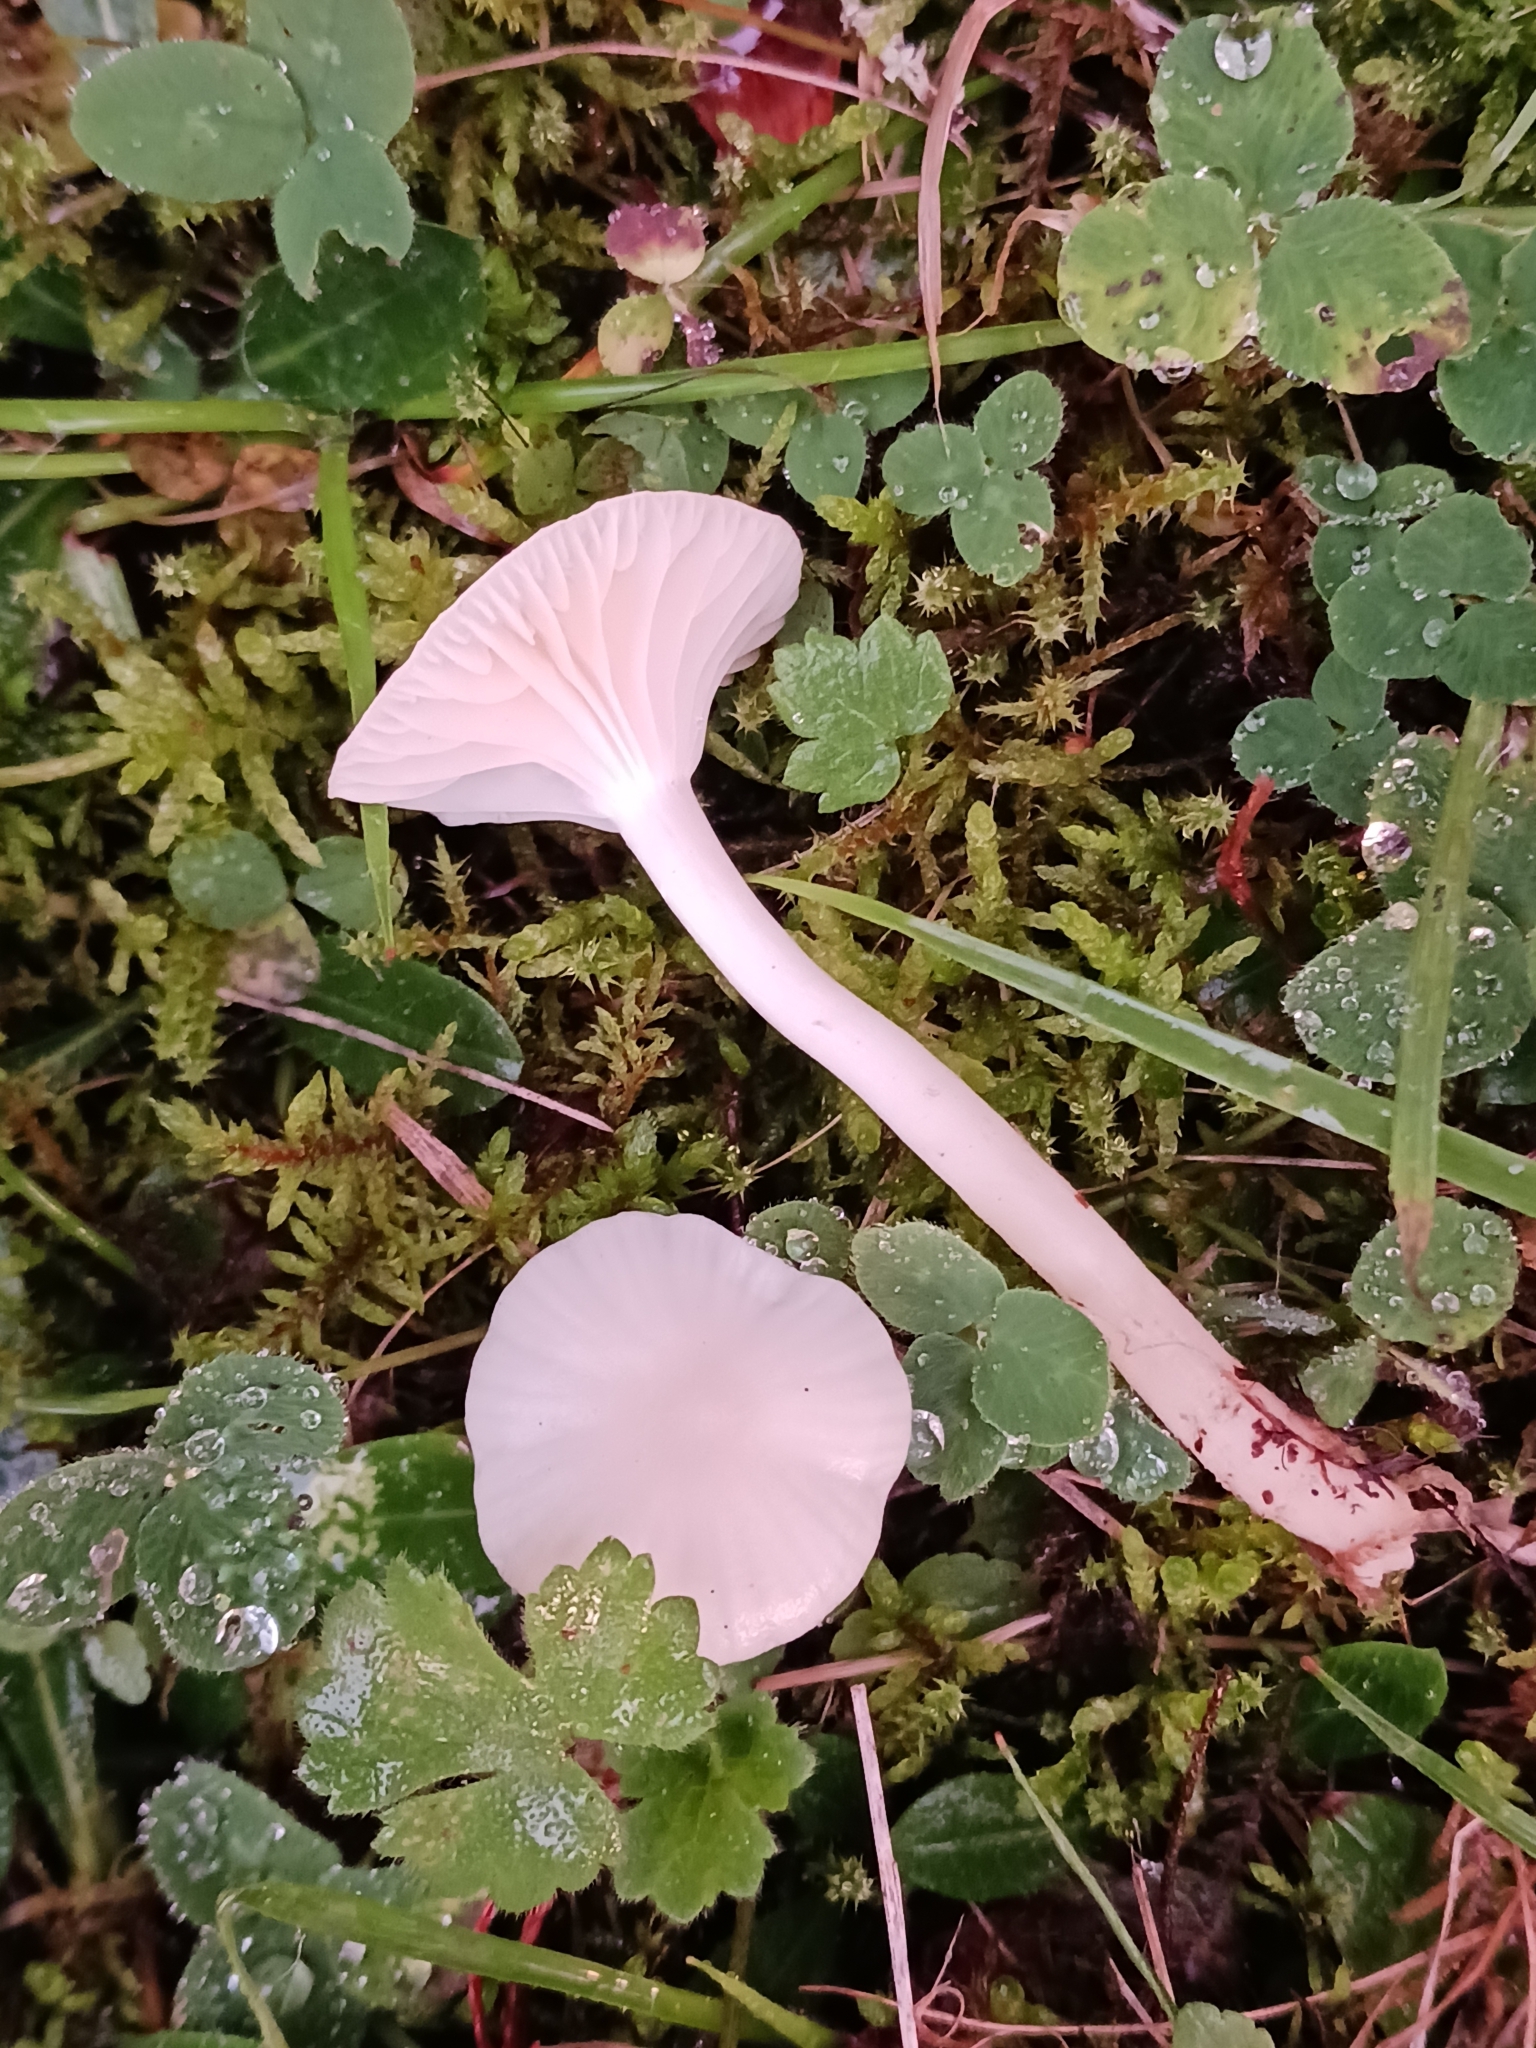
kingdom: Fungi
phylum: Basidiomycota
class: Agaricomycetes
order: Agaricales
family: Hygrophoraceae
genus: Cuphophyllus
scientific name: Cuphophyllus virgineus
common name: Snowy waxcap
